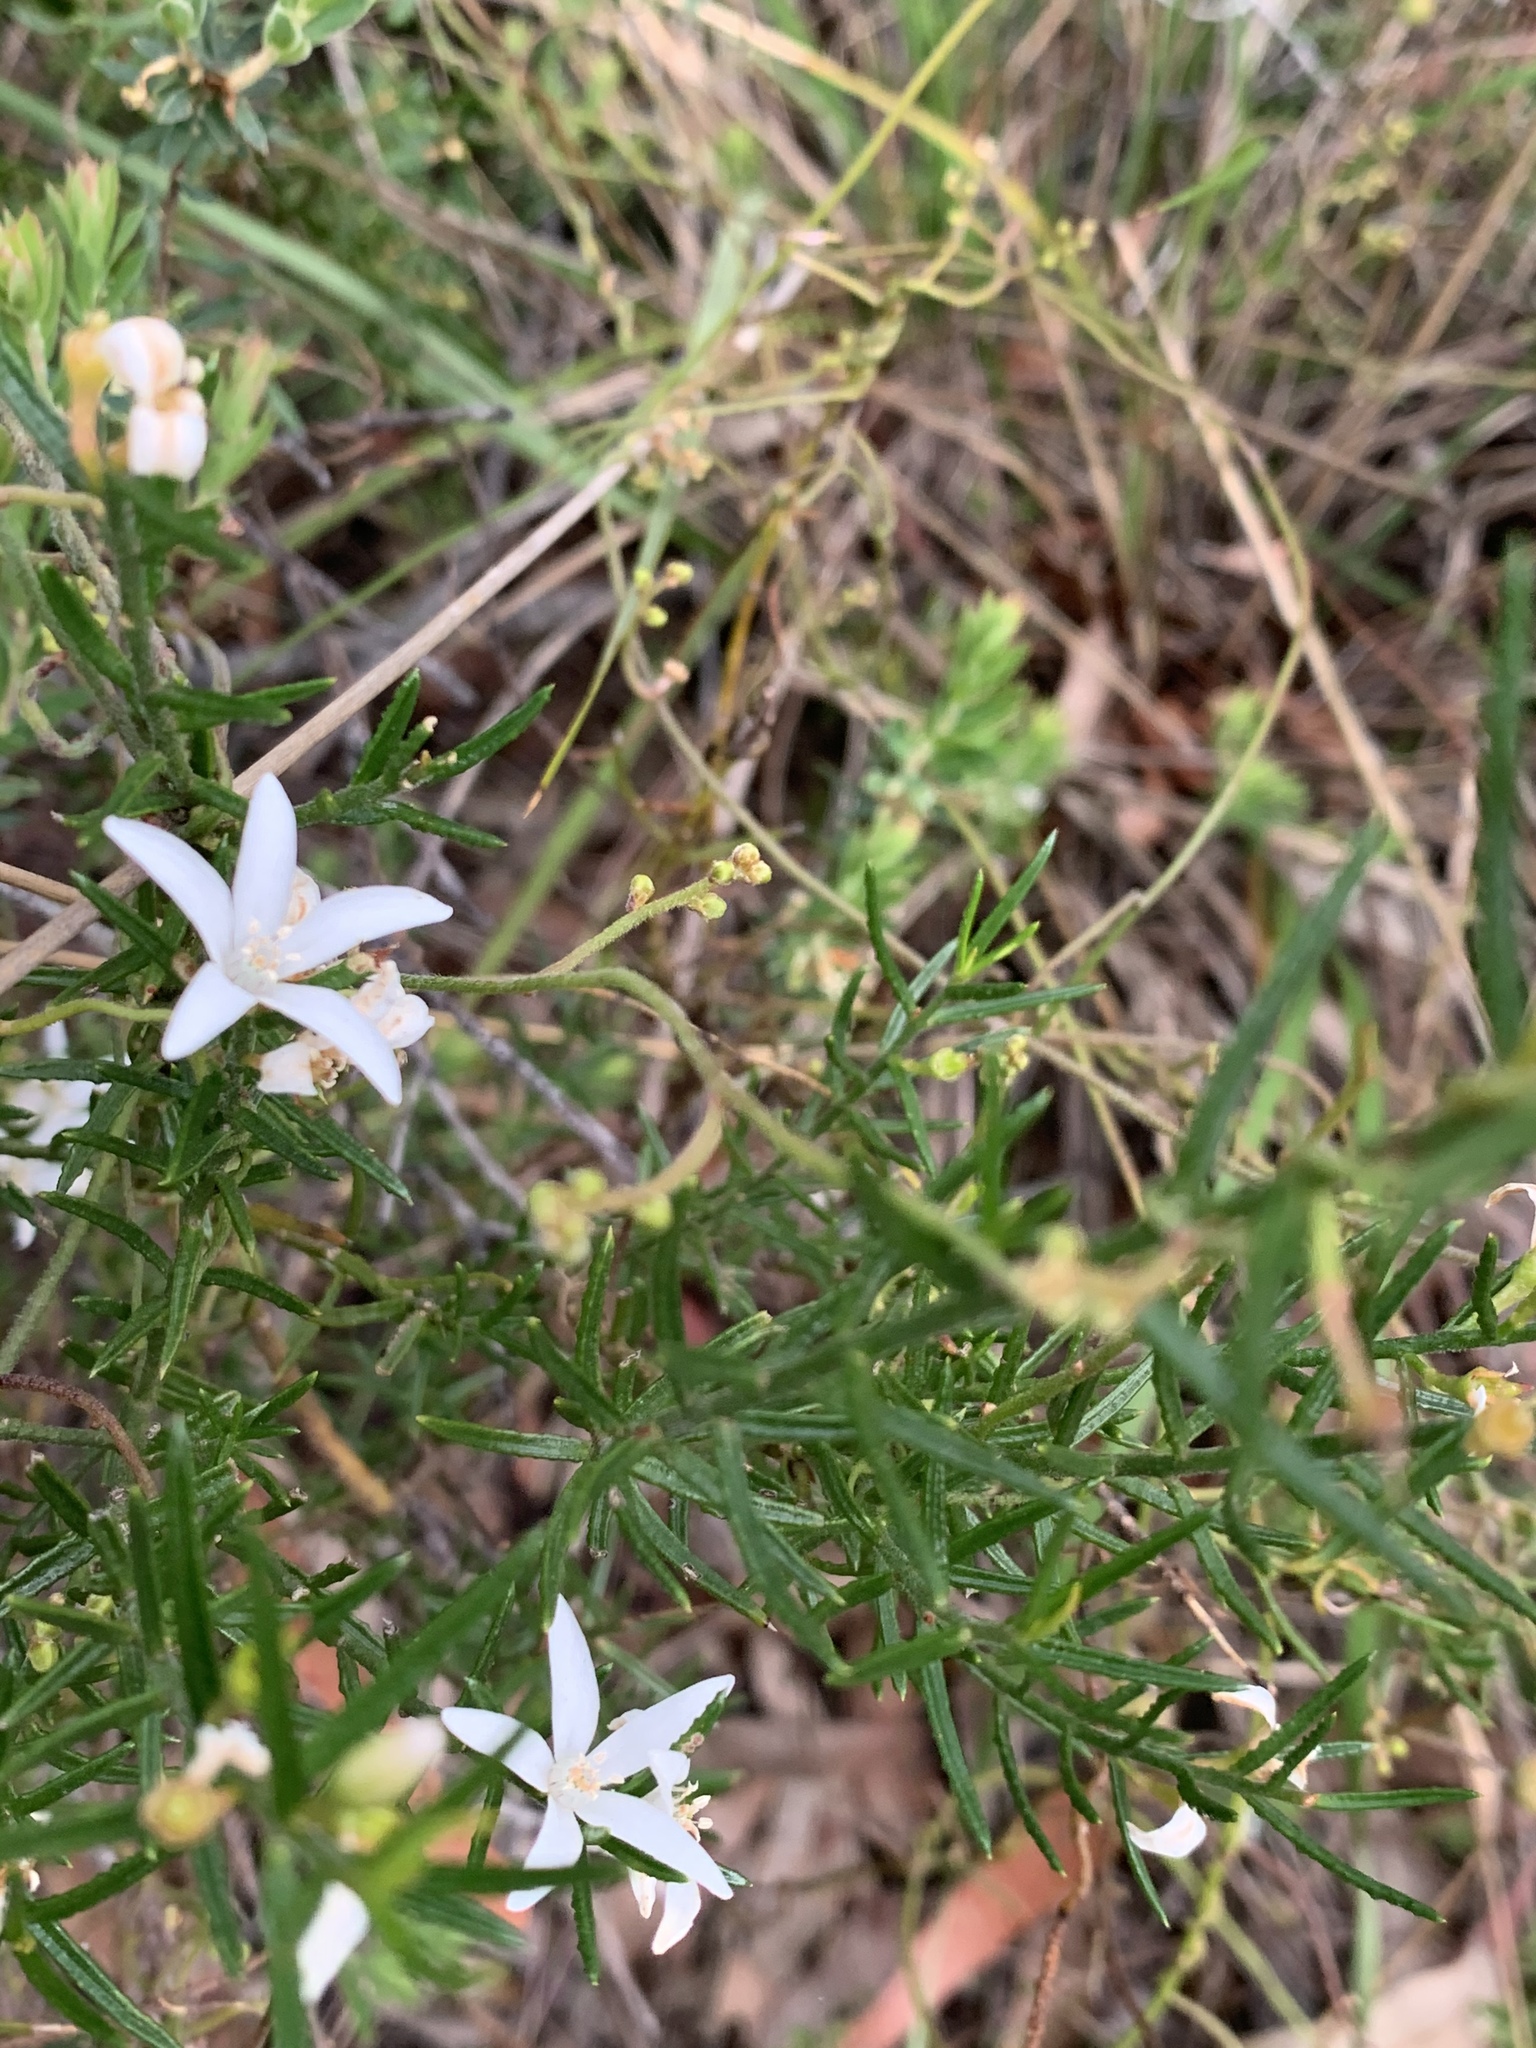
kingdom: Plantae
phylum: Tracheophyta
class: Magnoliopsida
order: Sapindales
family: Rutaceae
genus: Philotheca
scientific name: Philotheca scabra
